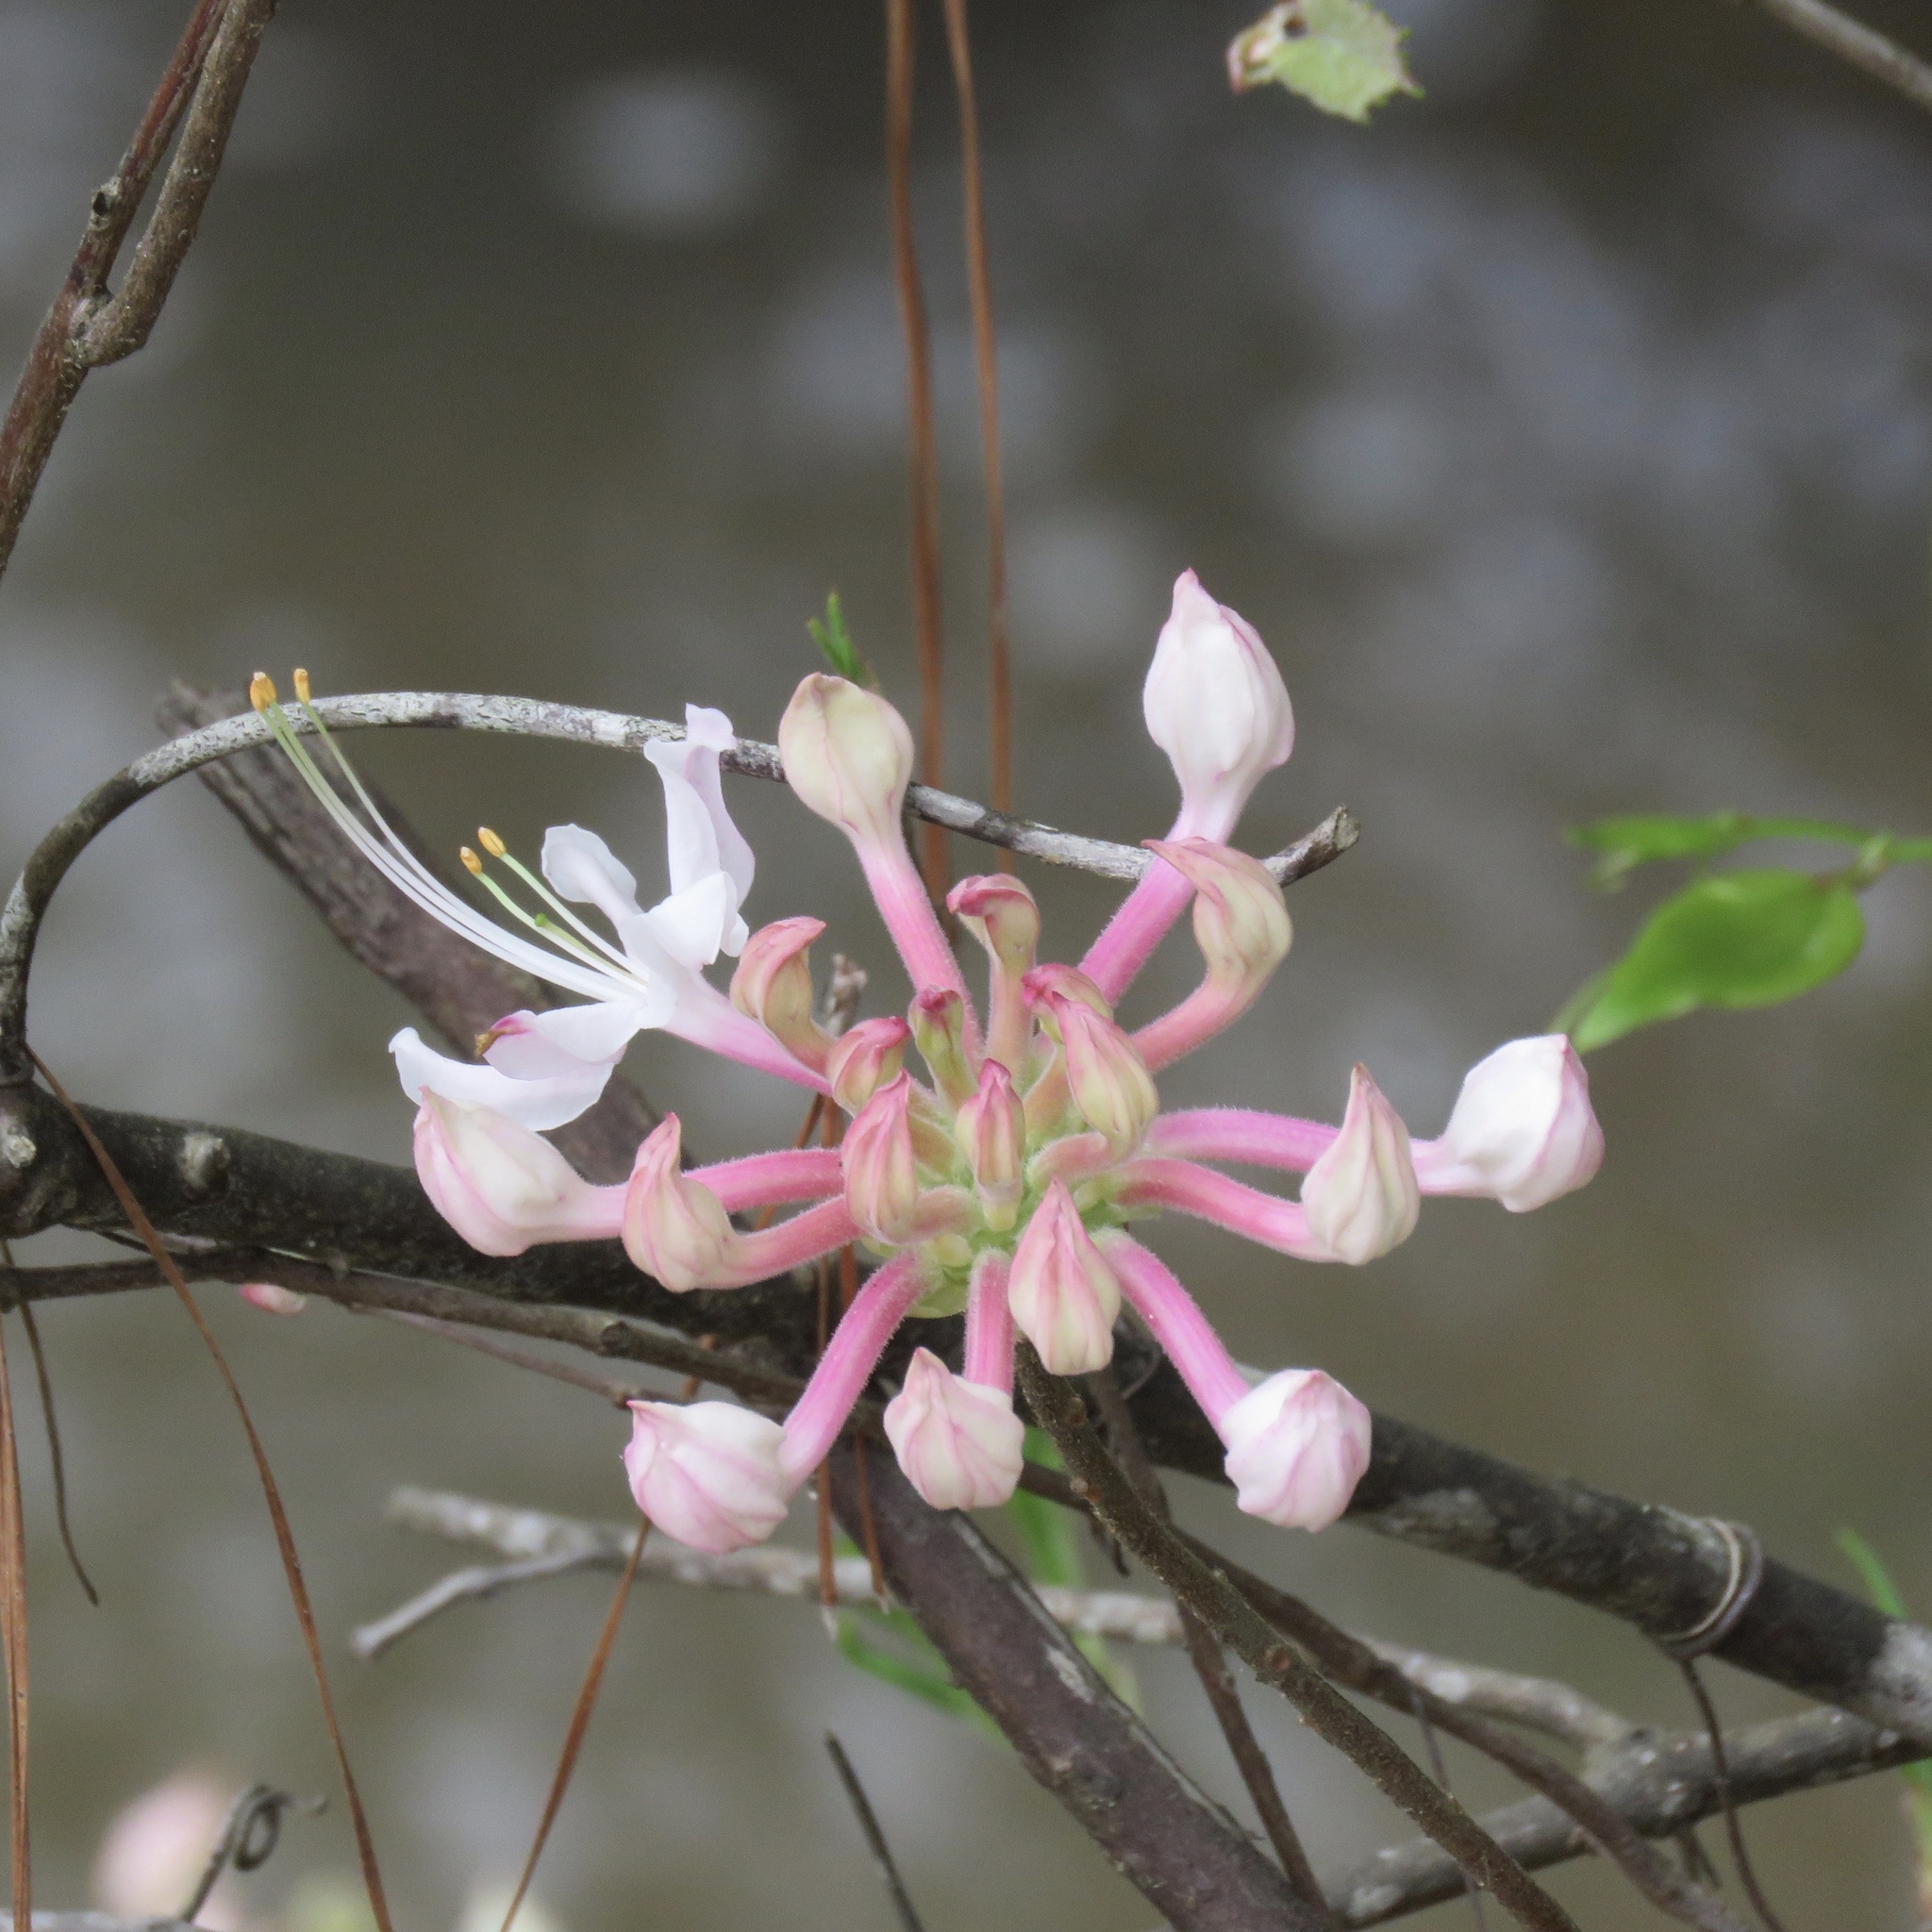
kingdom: Plantae
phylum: Tracheophyta
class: Magnoliopsida
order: Ericales
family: Ericaceae
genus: Rhododendron
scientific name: Rhododendron canescens
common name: Mountain azalea
